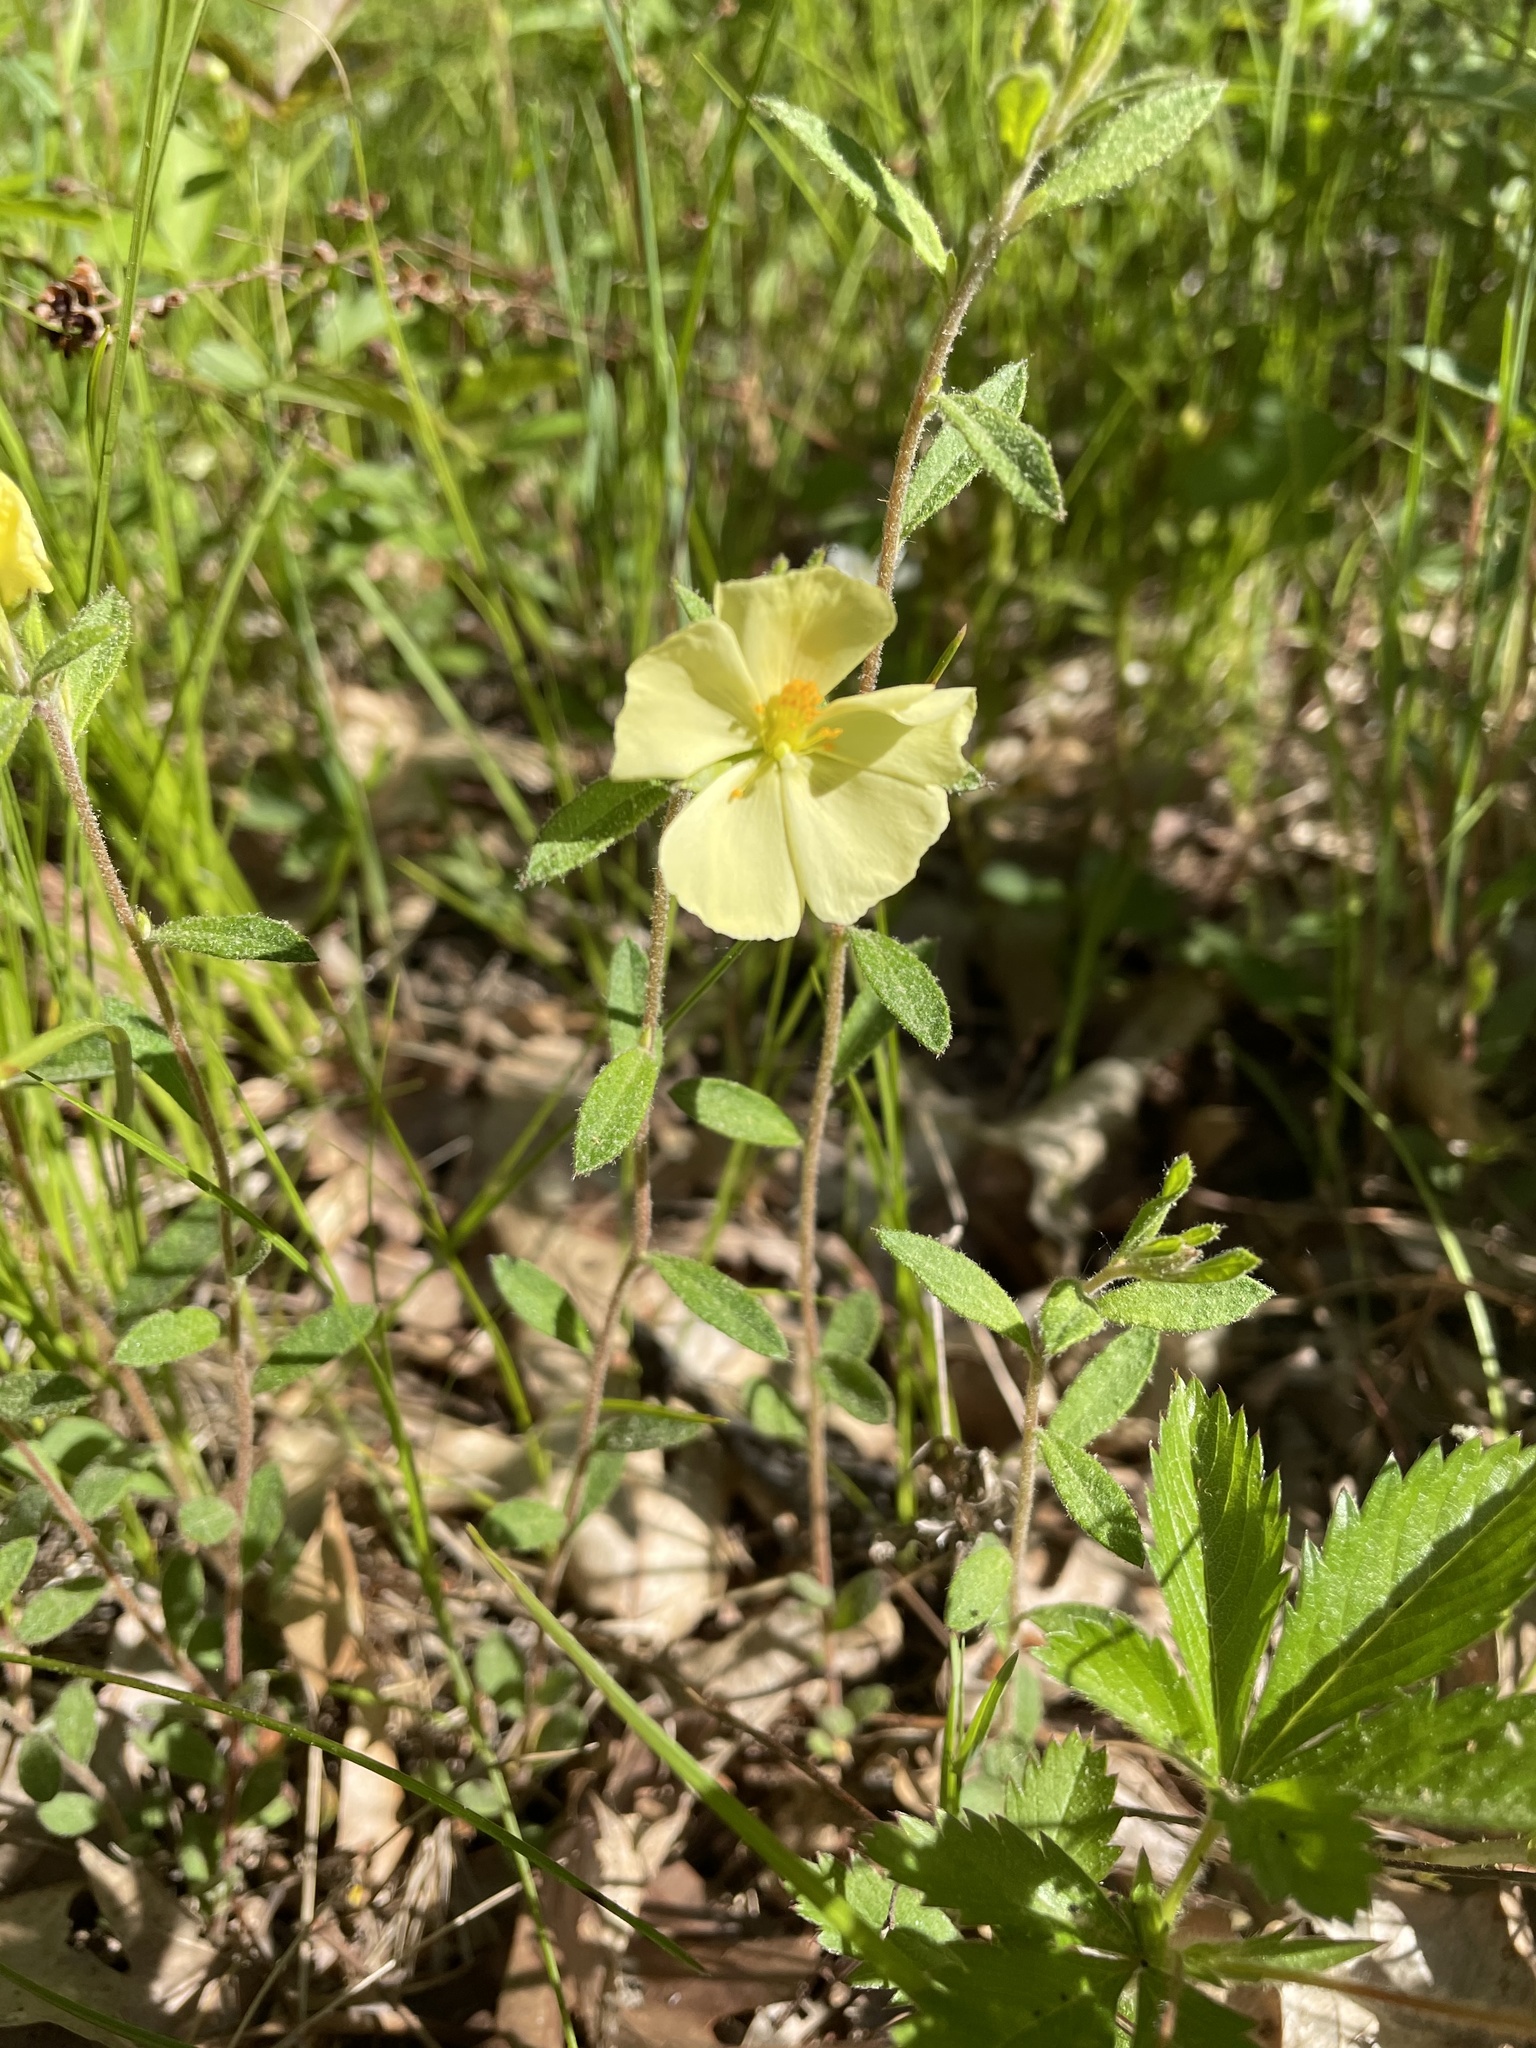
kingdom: Plantae
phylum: Tracheophyta
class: Magnoliopsida
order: Malvales
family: Cistaceae
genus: Crocanthemum
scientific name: Crocanthemum canadense
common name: Canada frostweed
